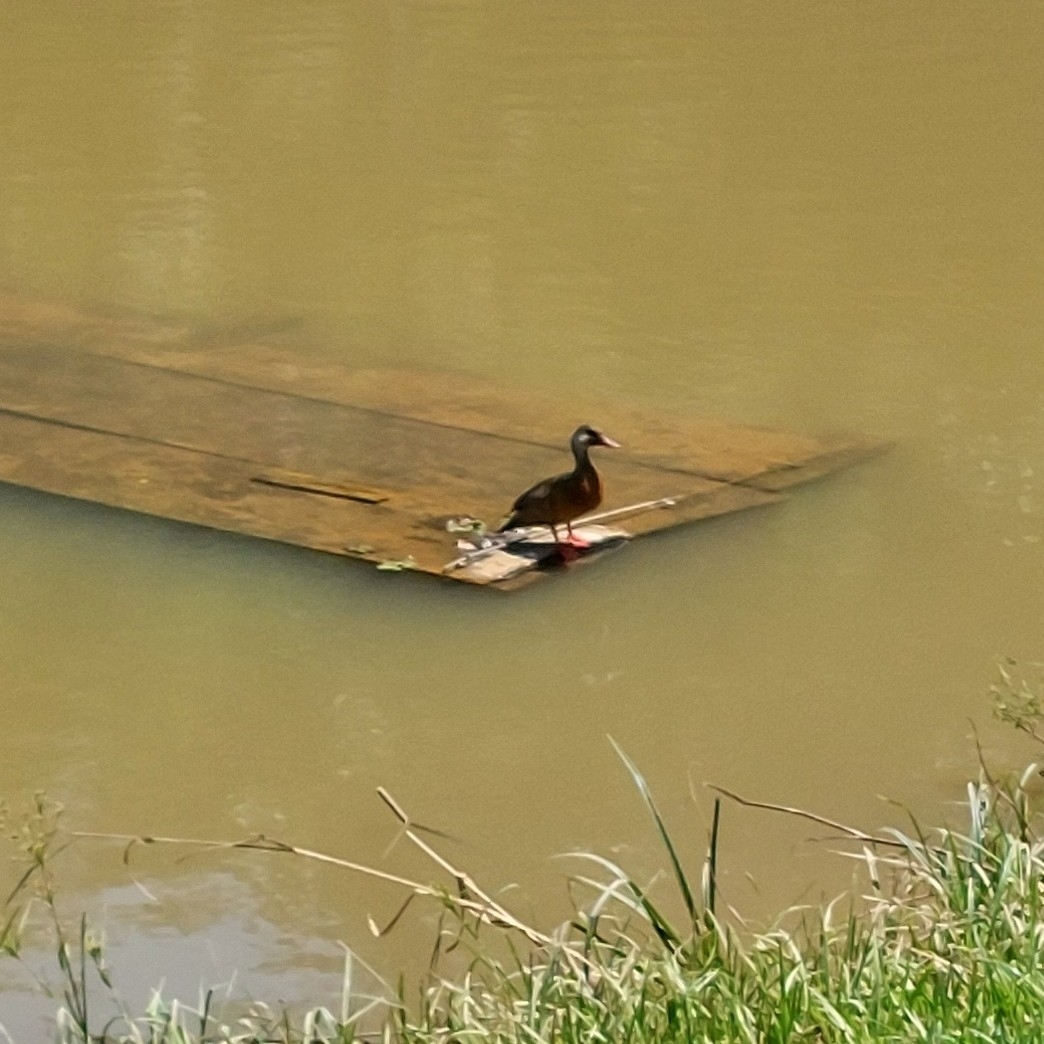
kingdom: Animalia
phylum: Chordata
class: Aves
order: Anseriformes
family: Anatidae
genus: Amazonetta
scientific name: Amazonetta brasiliensis
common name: Brazilian teal
